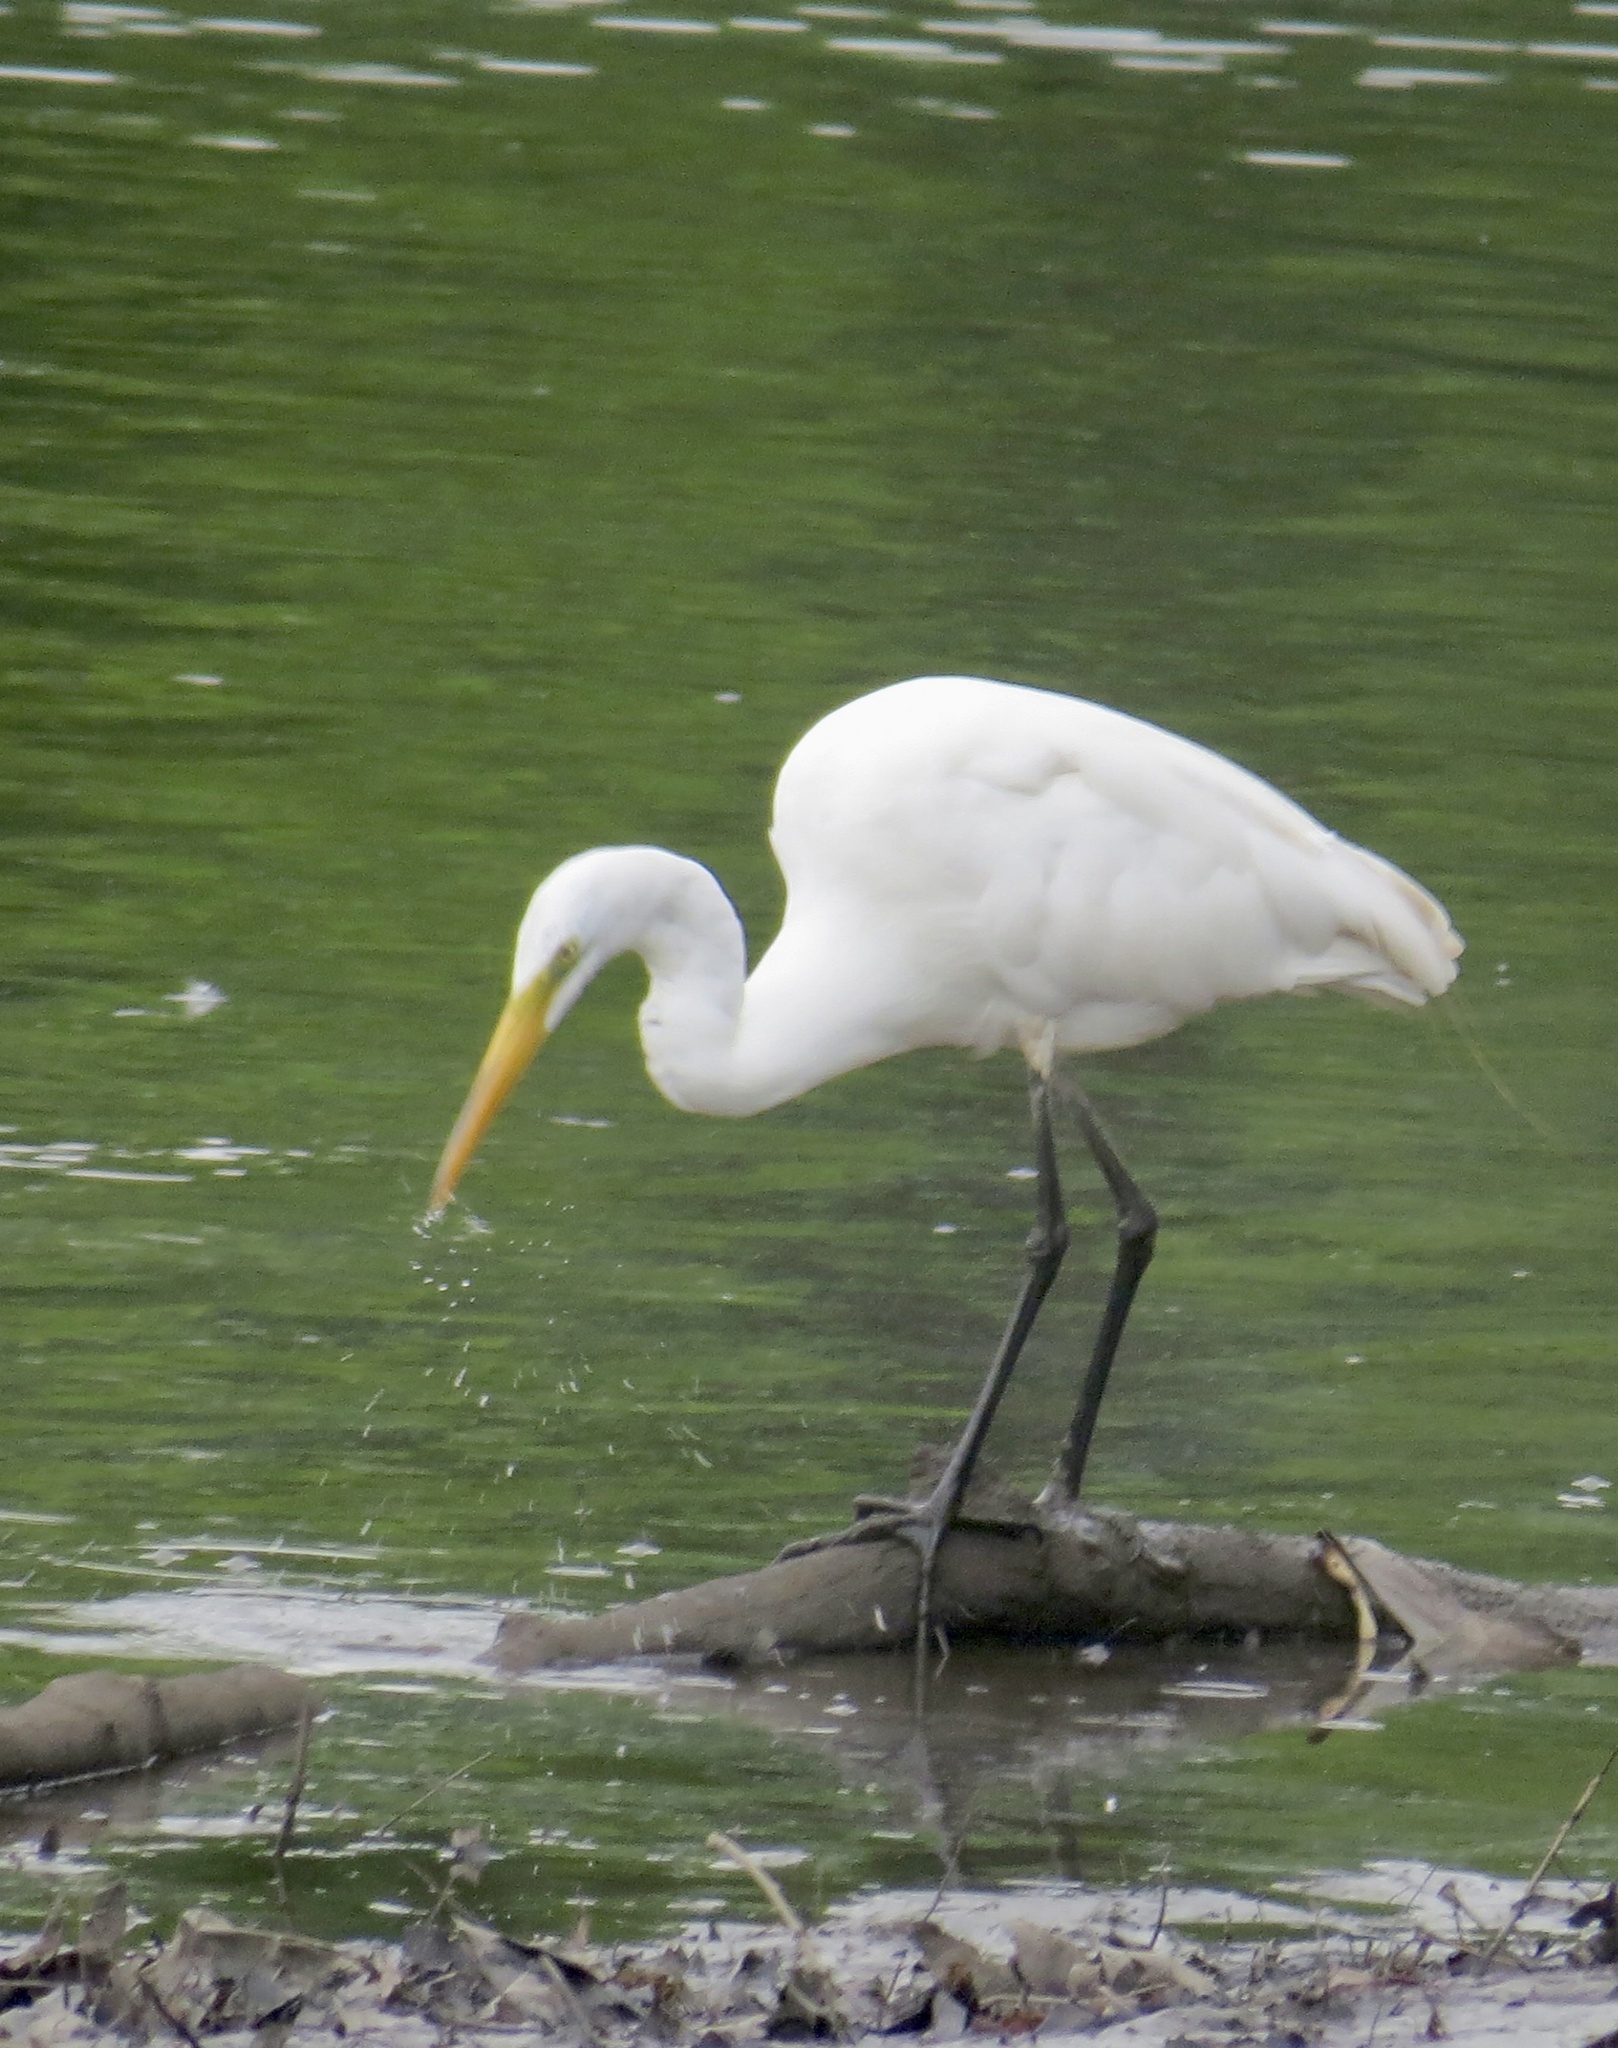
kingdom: Animalia
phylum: Chordata
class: Aves
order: Pelecaniformes
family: Ardeidae
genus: Ardea
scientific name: Ardea alba
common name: Great egret
